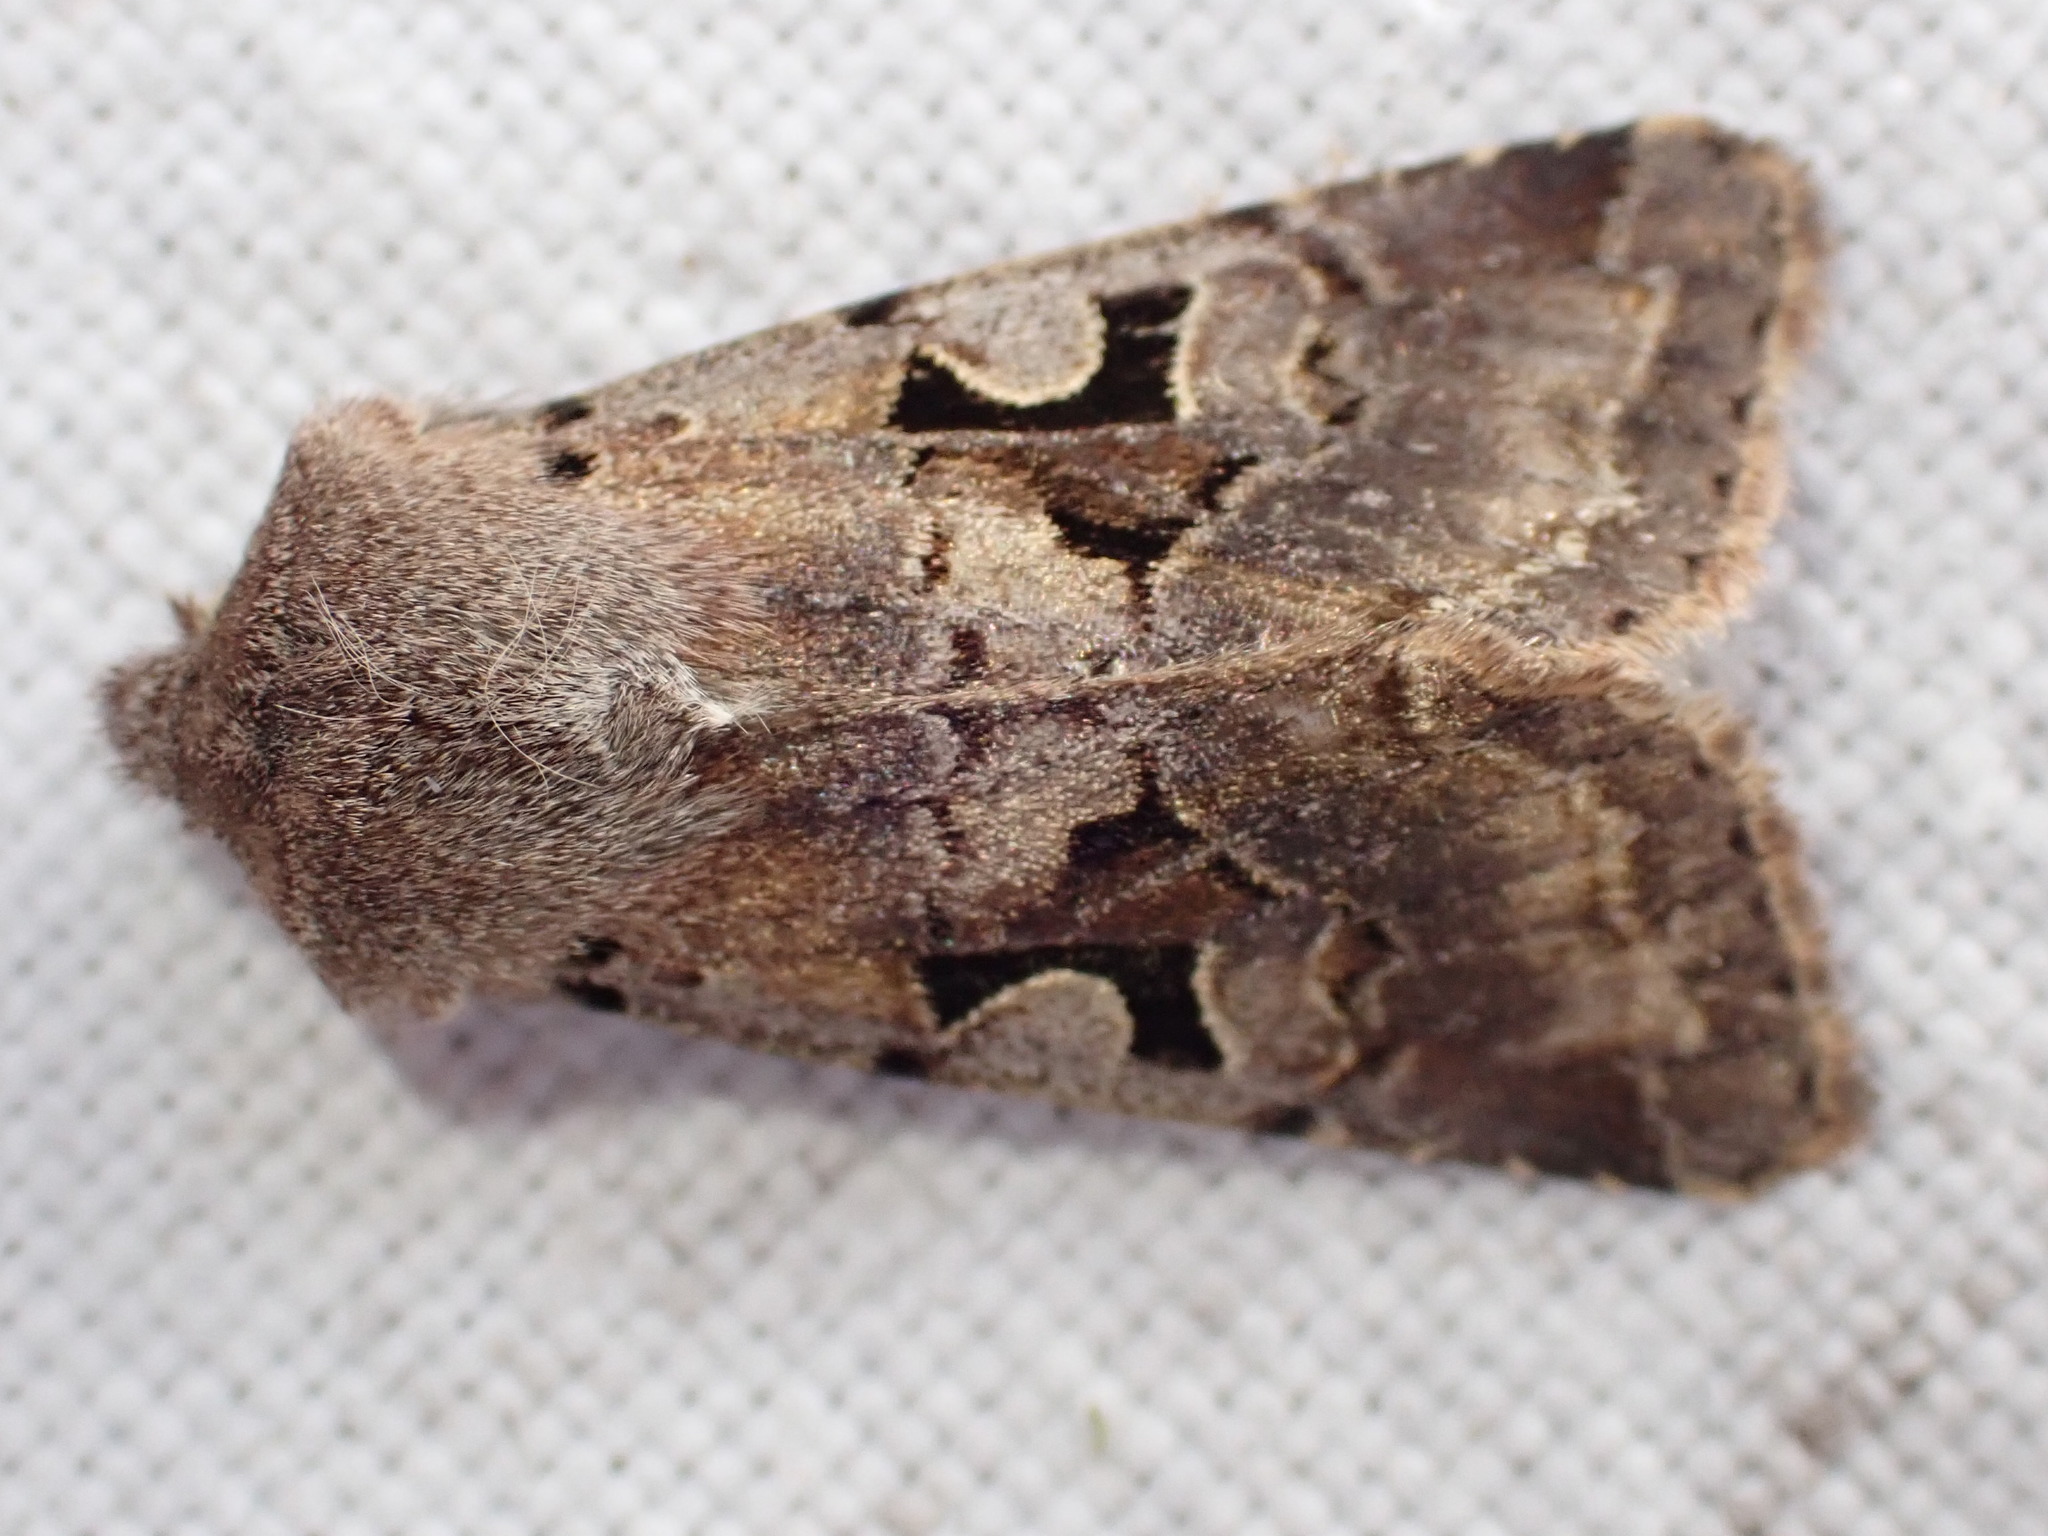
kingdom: Animalia
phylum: Arthropoda
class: Insecta
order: Lepidoptera
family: Noctuidae
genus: Orthosia
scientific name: Orthosia gothica
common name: Hebrew character
